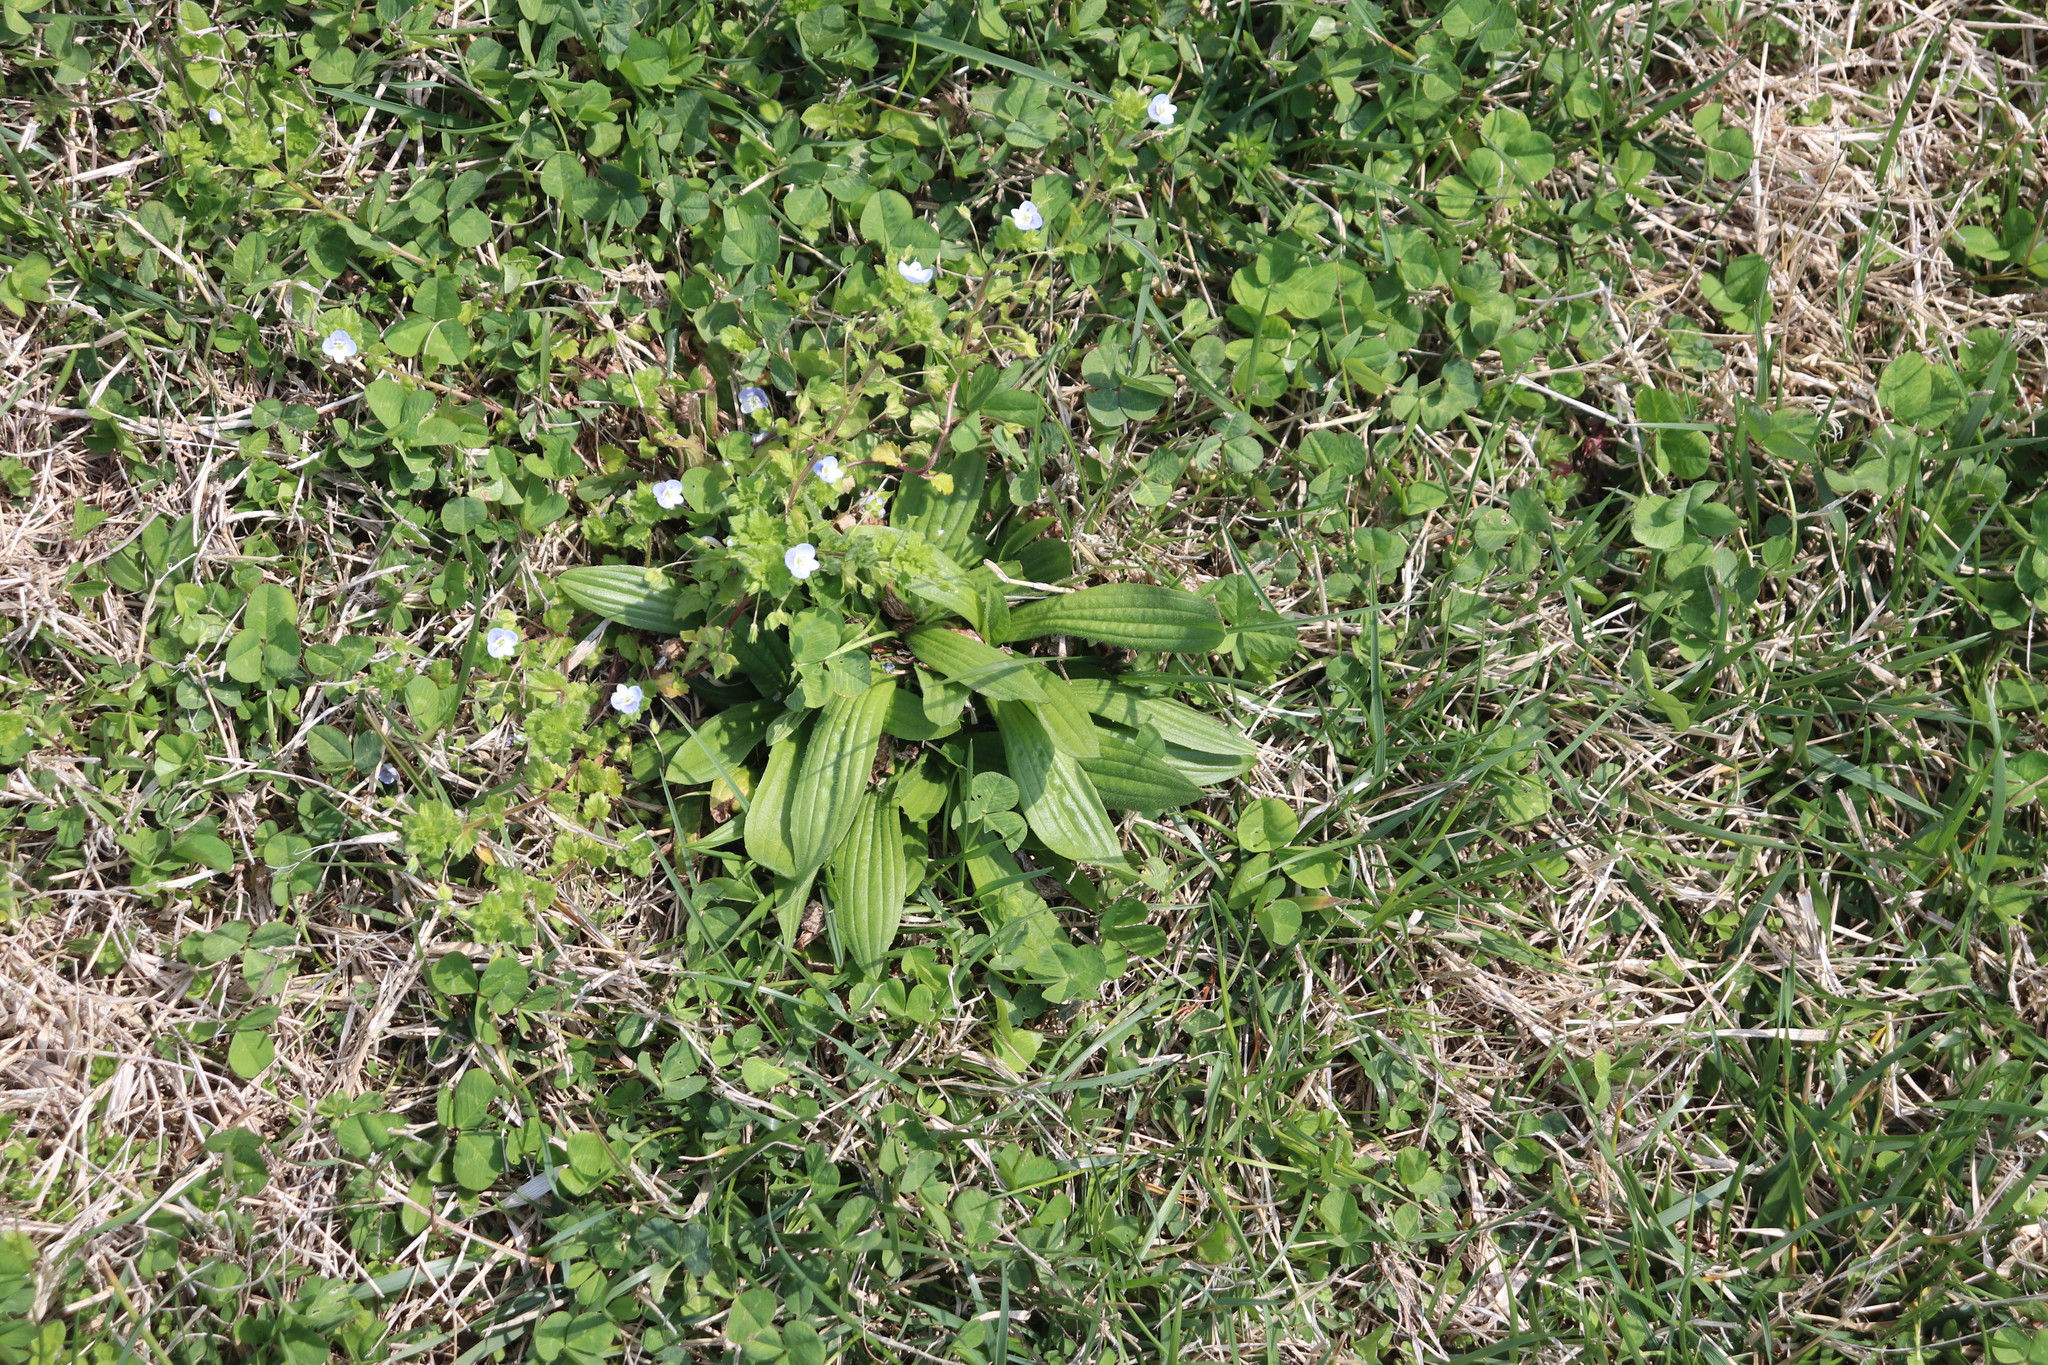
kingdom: Plantae
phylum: Tracheophyta
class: Magnoliopsida
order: Lamiales
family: Plantaginaceae
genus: Plantago
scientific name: Plantago lanceolata
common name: Ribwort plantain
